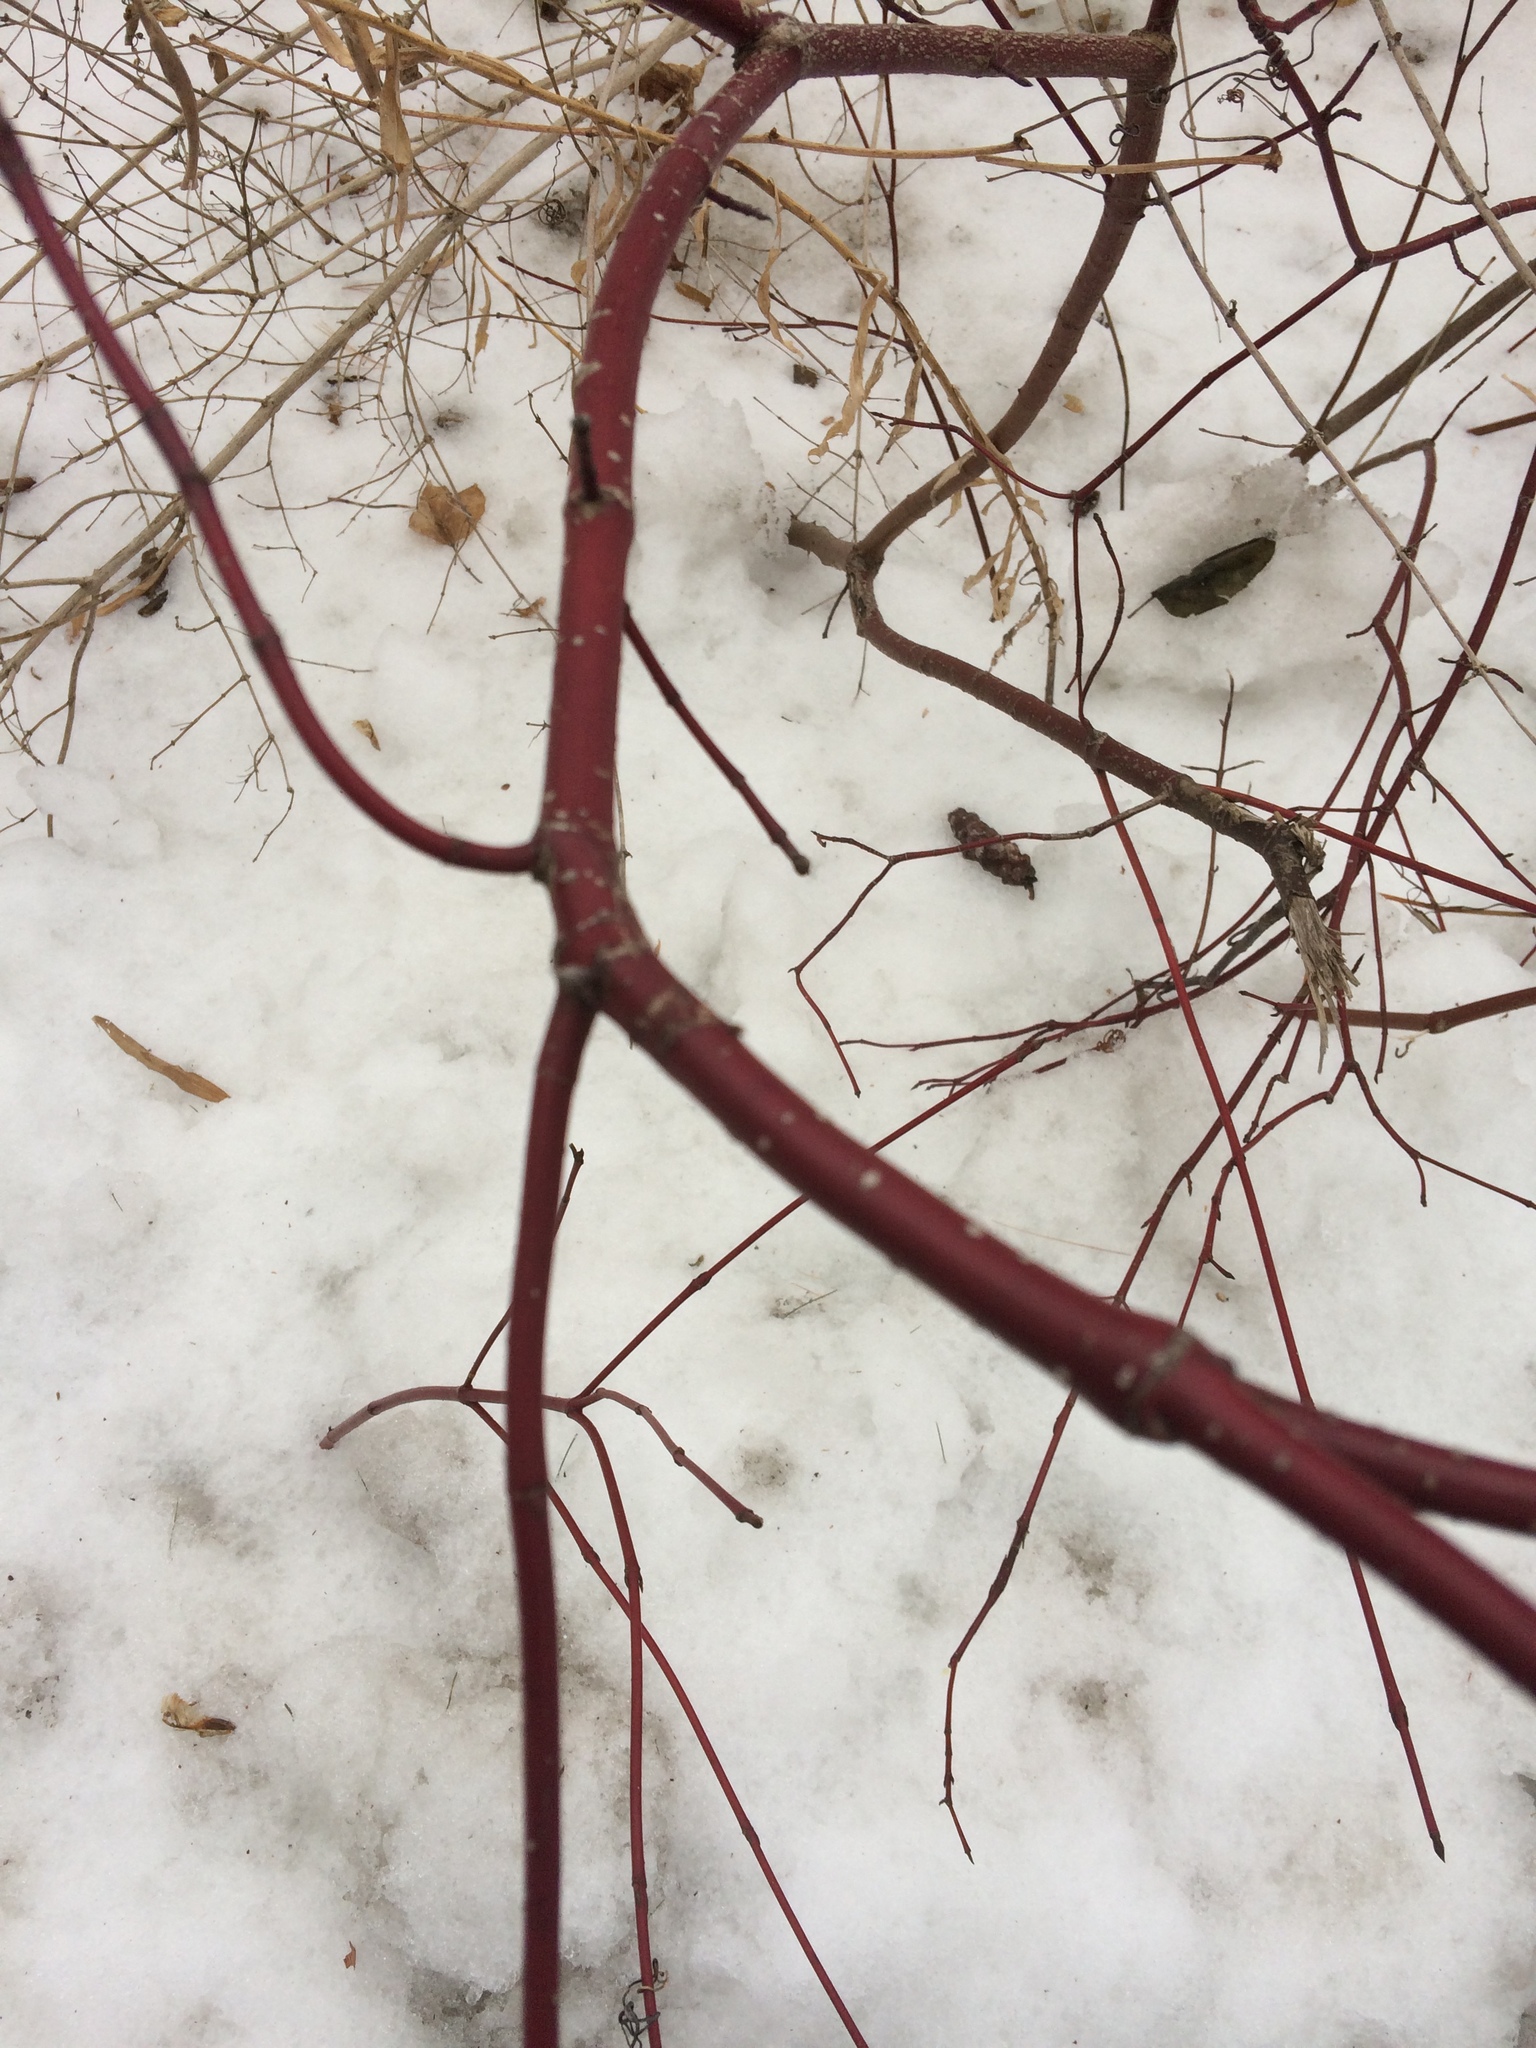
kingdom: Plantae
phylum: Tracheophyta
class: Magnoliopsida
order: Cornales
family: Cornaceae
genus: Cornus
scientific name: Cornus sericea
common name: Red-osier dogwood
